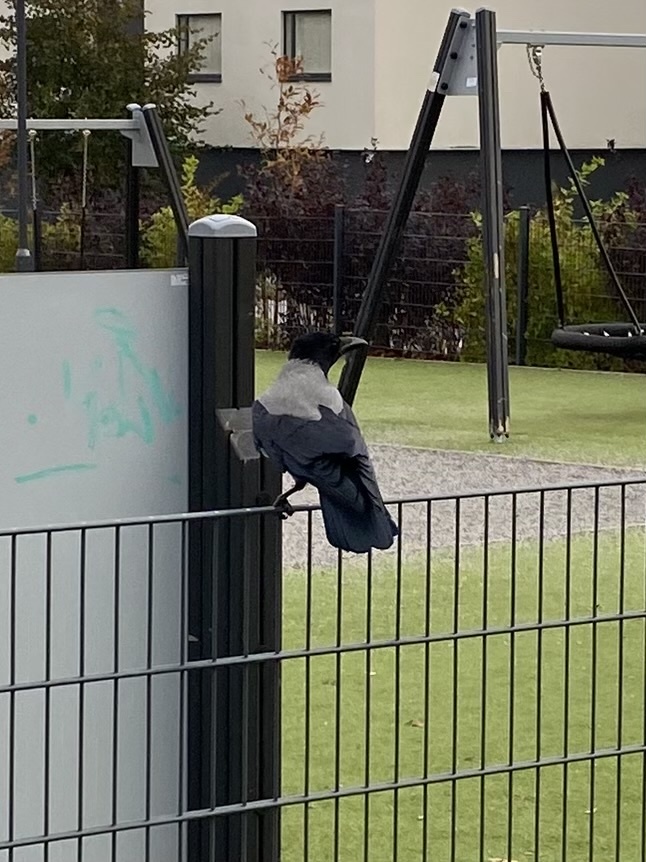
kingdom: Animalia
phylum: Chordata
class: Aves
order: Passeriformes
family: Corvidae
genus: Corvus
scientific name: Corvus cornix
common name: Hooded crow
